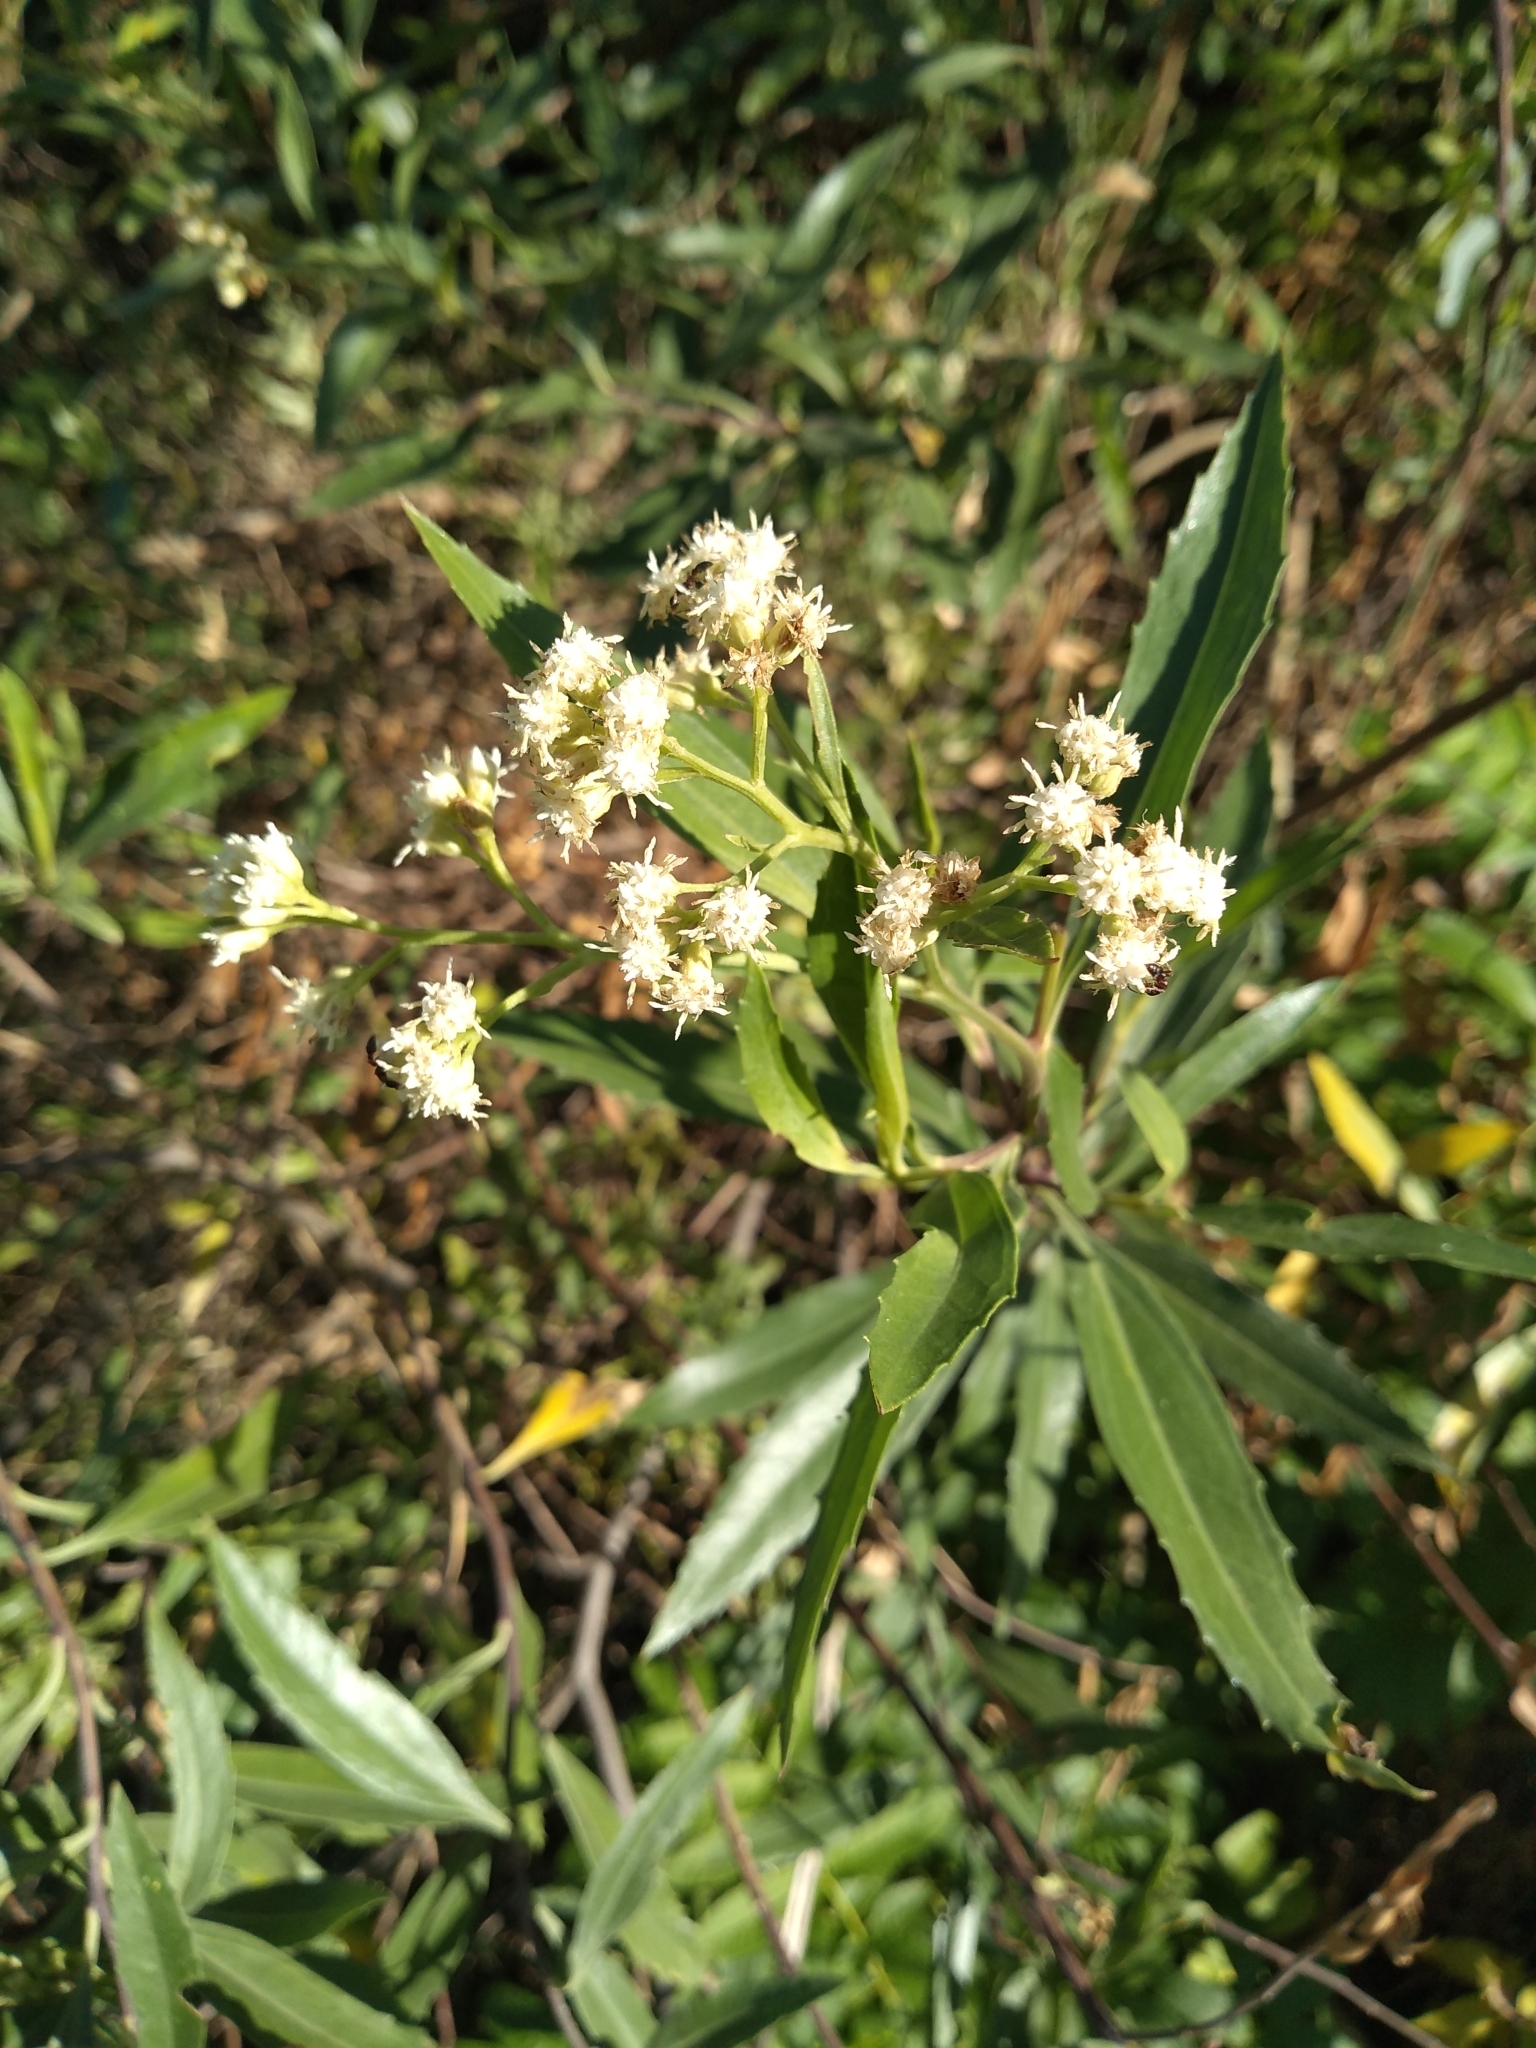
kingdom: Plantae
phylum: Tracheophyta
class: Magnoliopsida
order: Asterales
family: Asteraceae
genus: Baccharis
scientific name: Baccharis salicifolia
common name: Sticky baccharis
